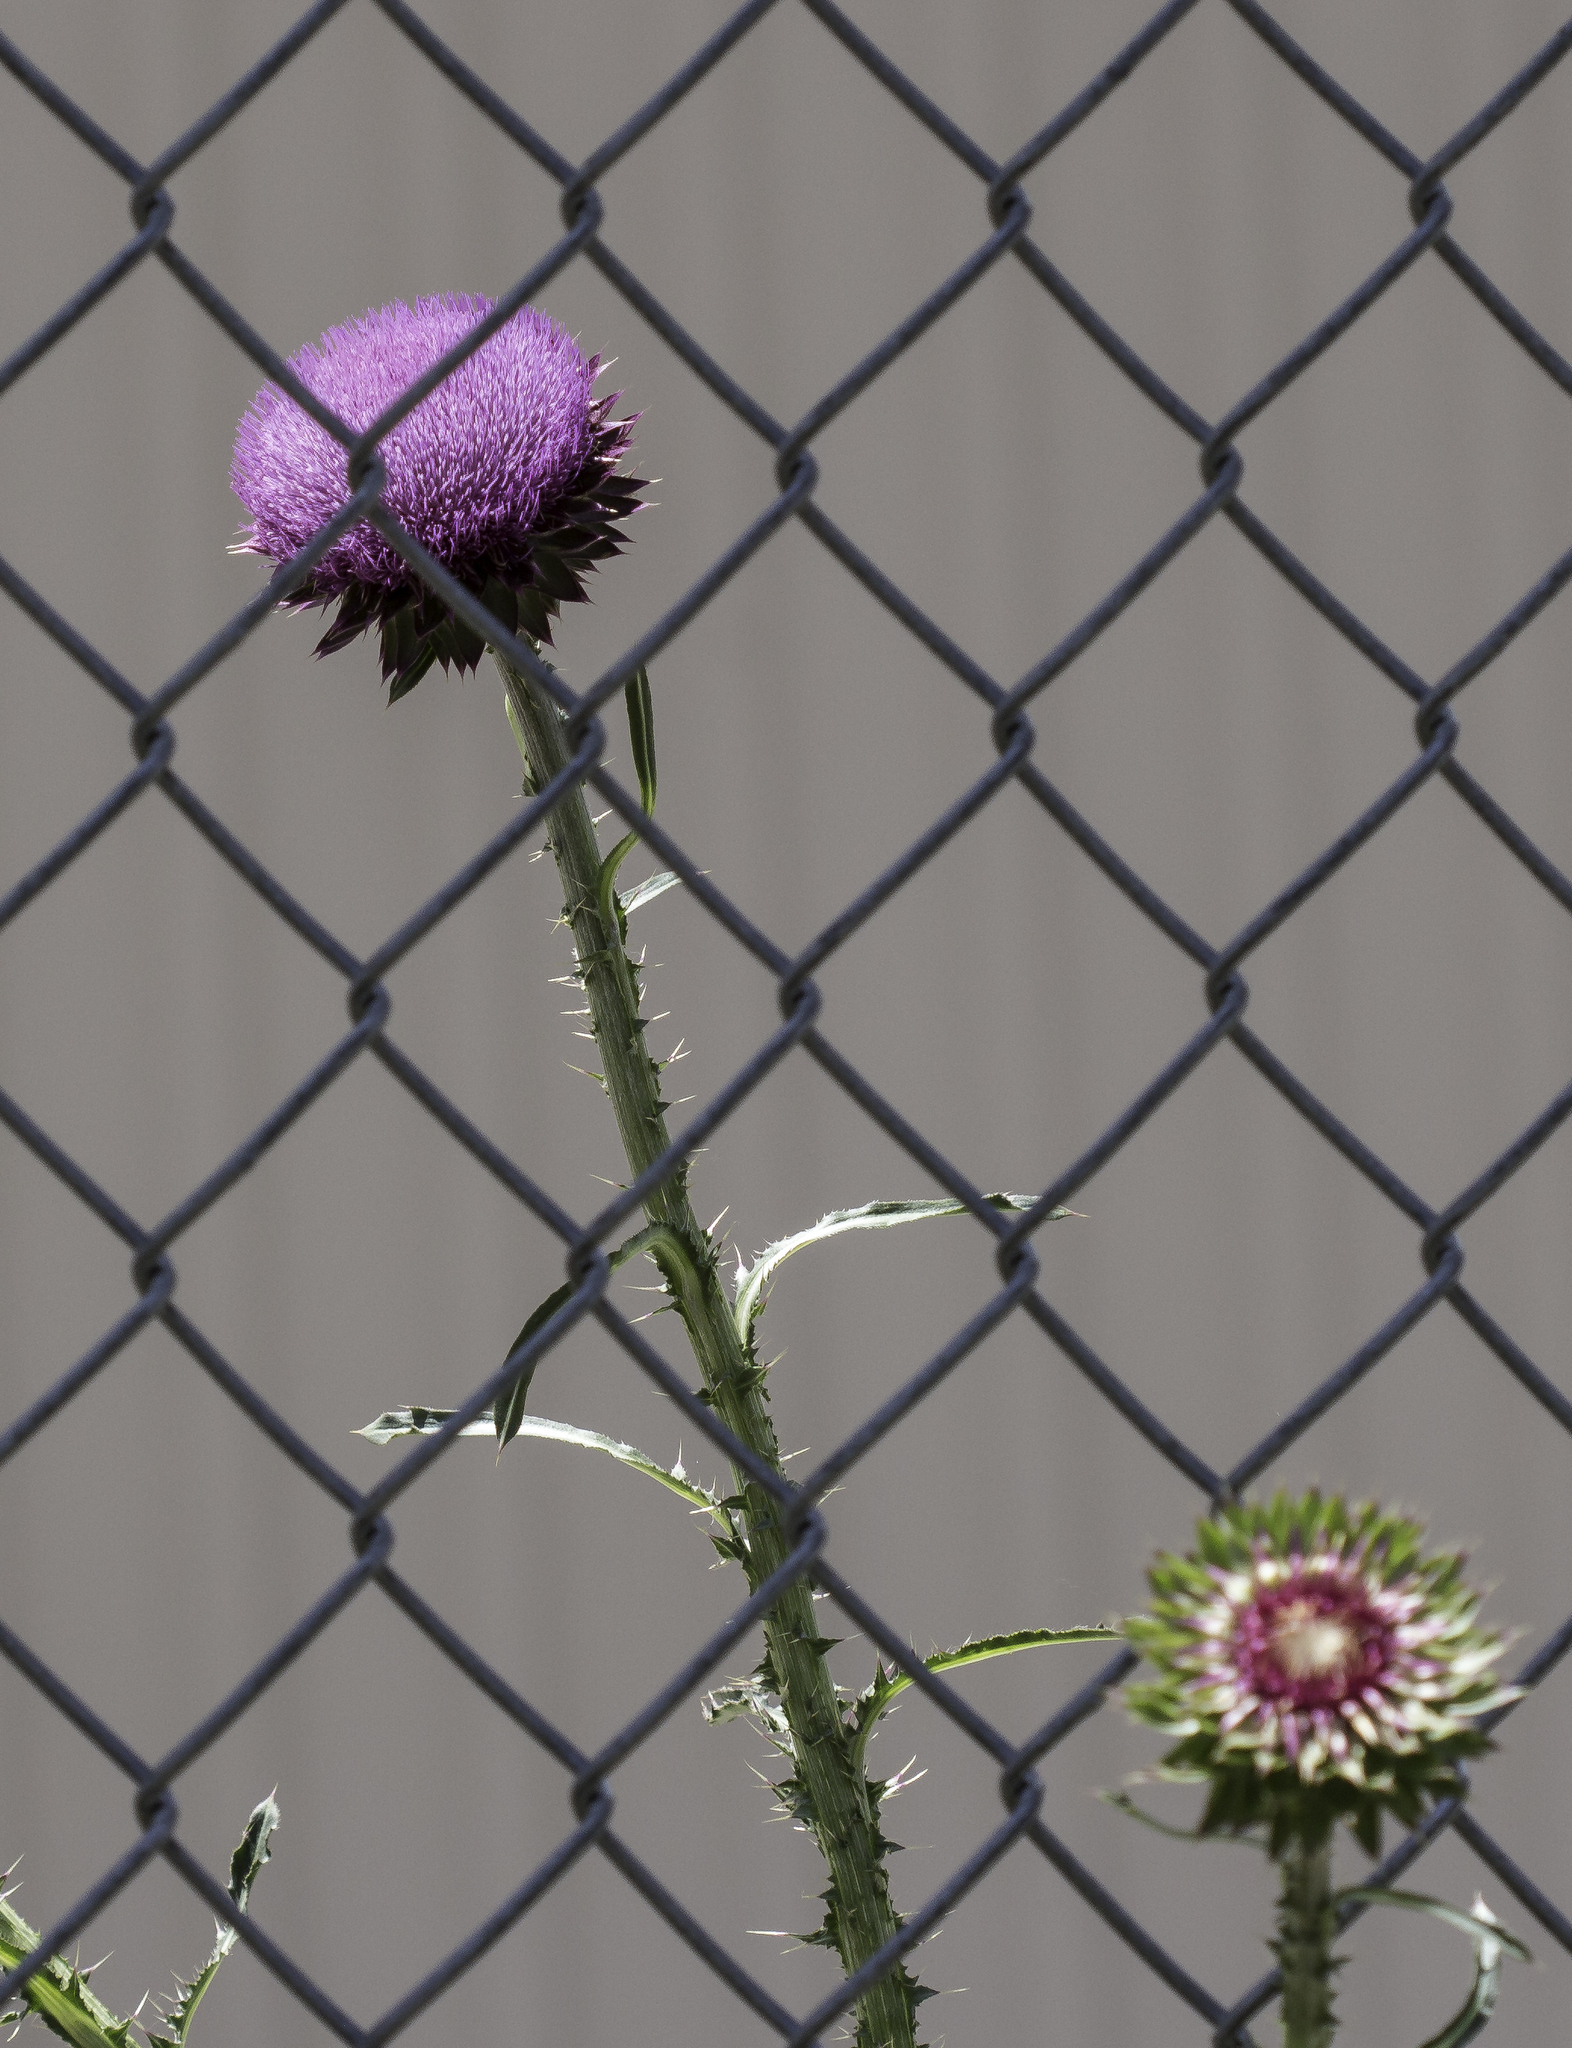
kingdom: Plantae
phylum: Tracheophyta
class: Magnoliopsida
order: Asterales
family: Asteraceae
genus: Carduus
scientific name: Carduus nutans
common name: Musk thistle
